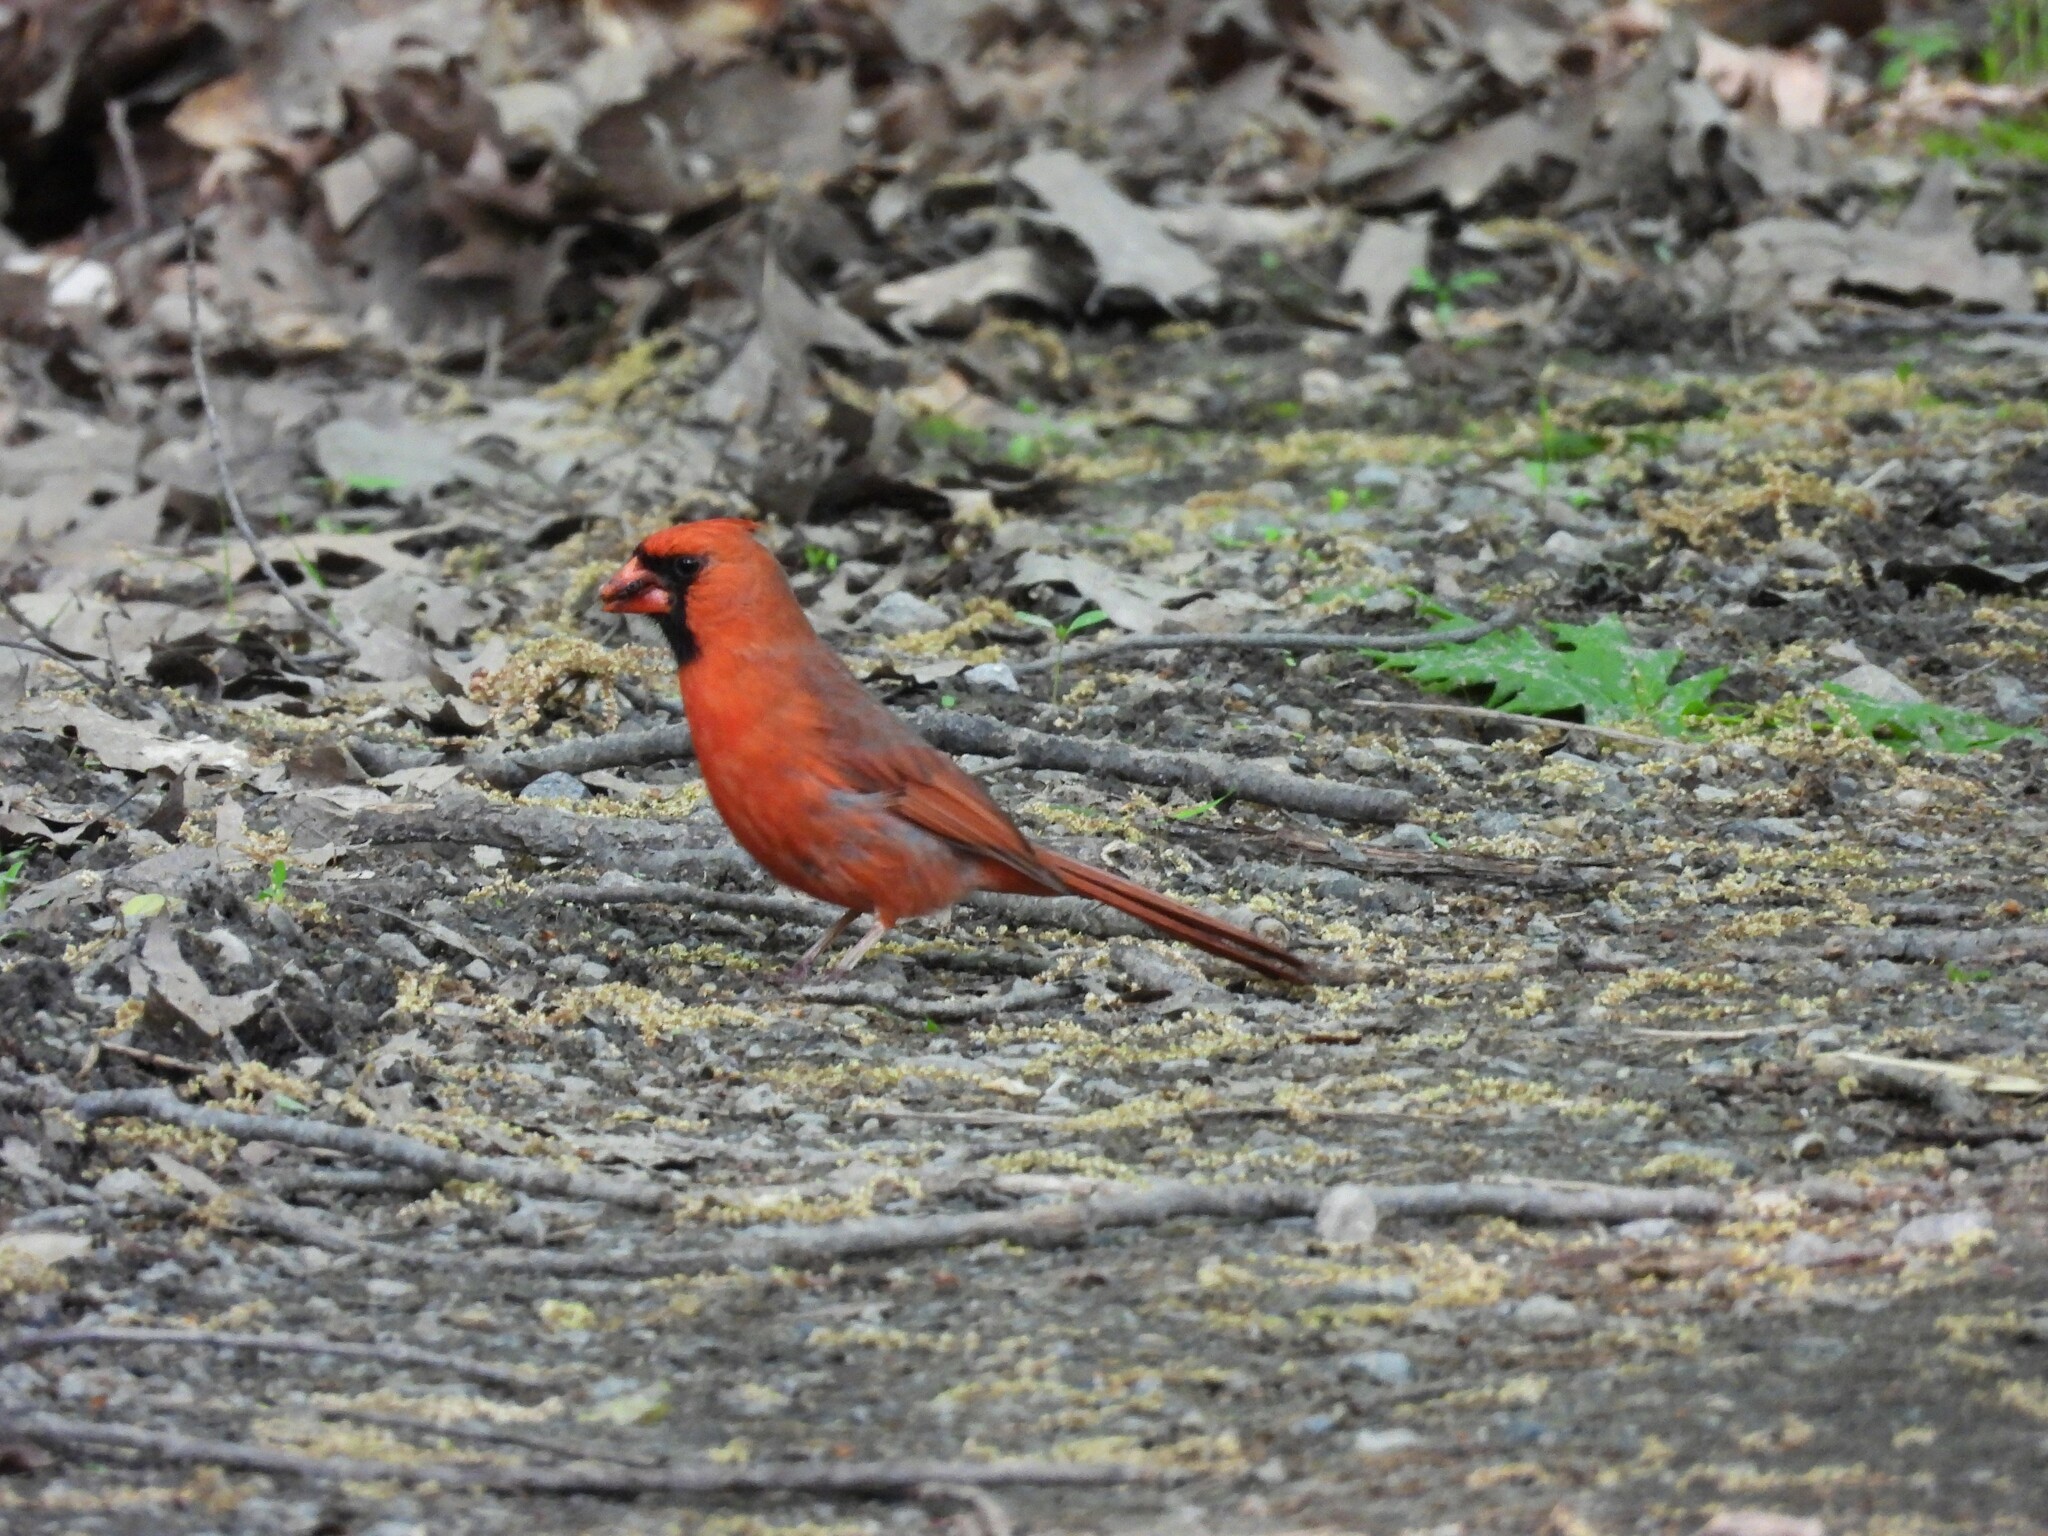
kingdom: Animalia
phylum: Chordata
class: Aves
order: Passeriformes
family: Cardinalidae
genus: Cardinalis
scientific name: Cardinalis cardinalis
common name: Northern cardinal
